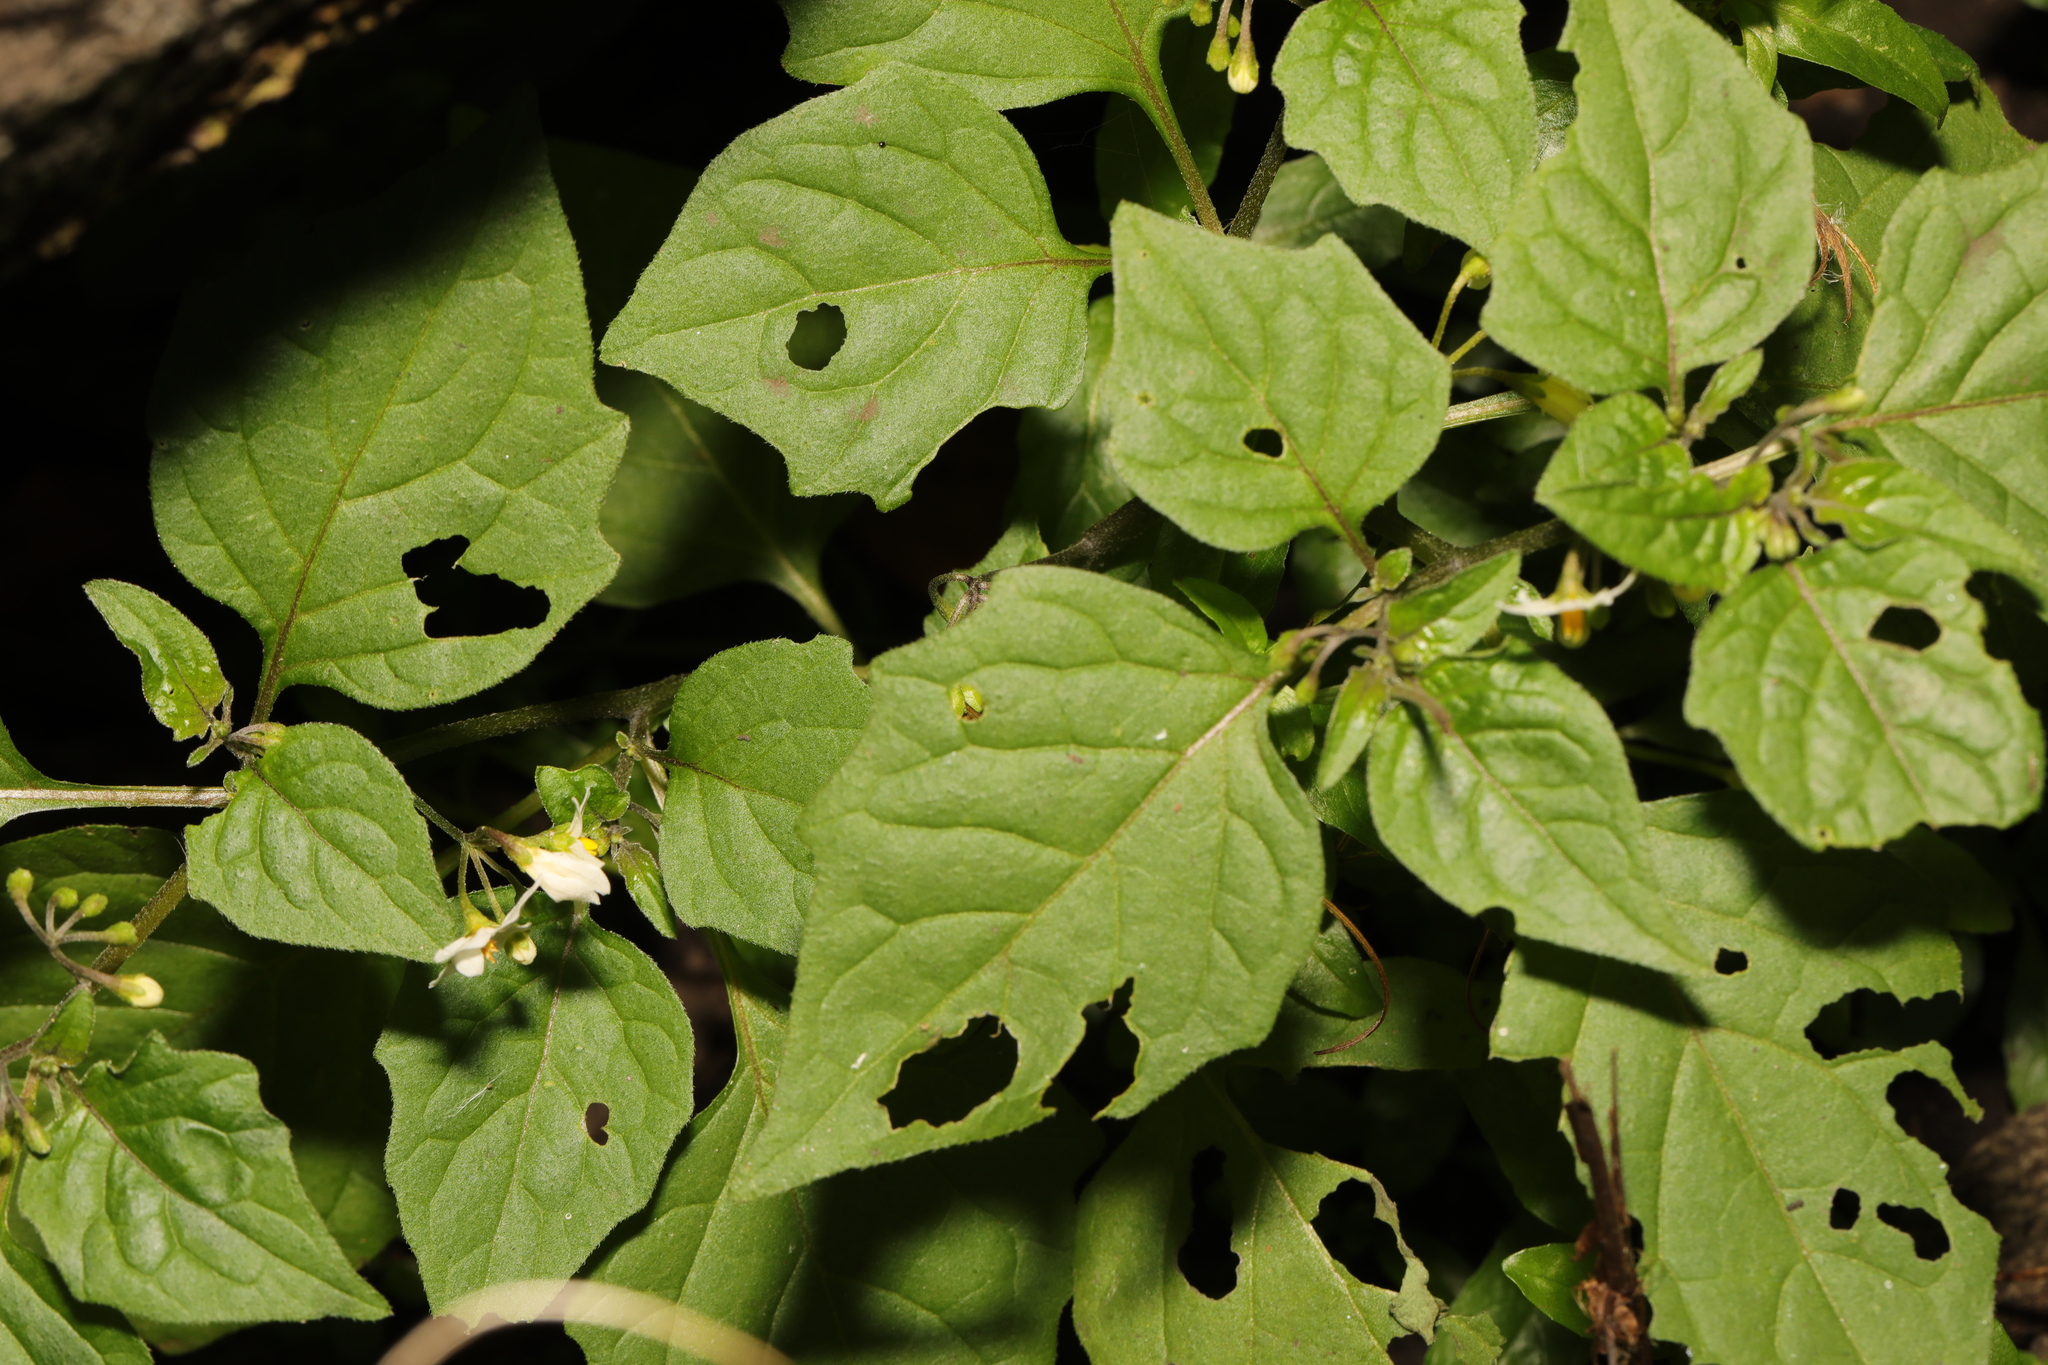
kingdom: Plantae
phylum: Tracheophyta
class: Magnoliopsida
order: Solanales
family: Solanaceae
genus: Solanum
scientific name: Solanum nigrum
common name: Black nightshade
